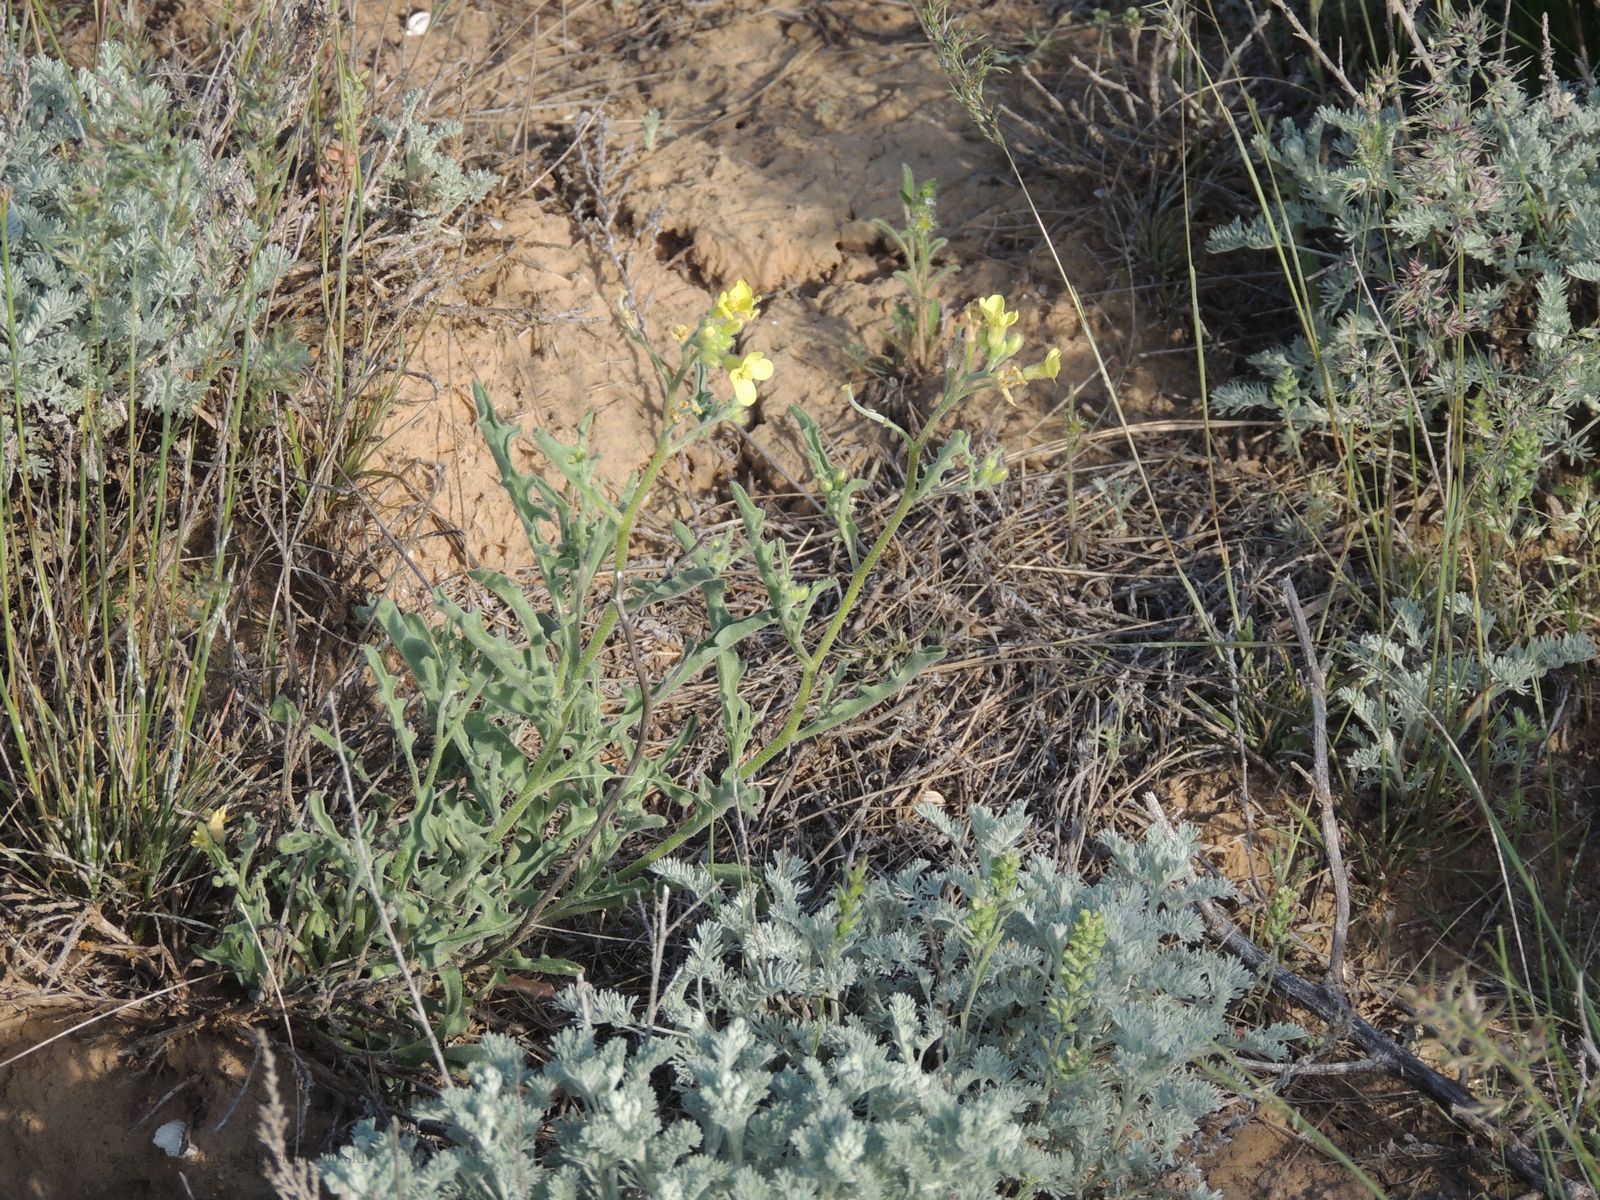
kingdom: Plantae
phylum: Tracheophyta
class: Magnoliopsida
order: Brassicales
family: Brassicaceae
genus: Sterigmostemum
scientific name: Sterigmostemum caspicum
